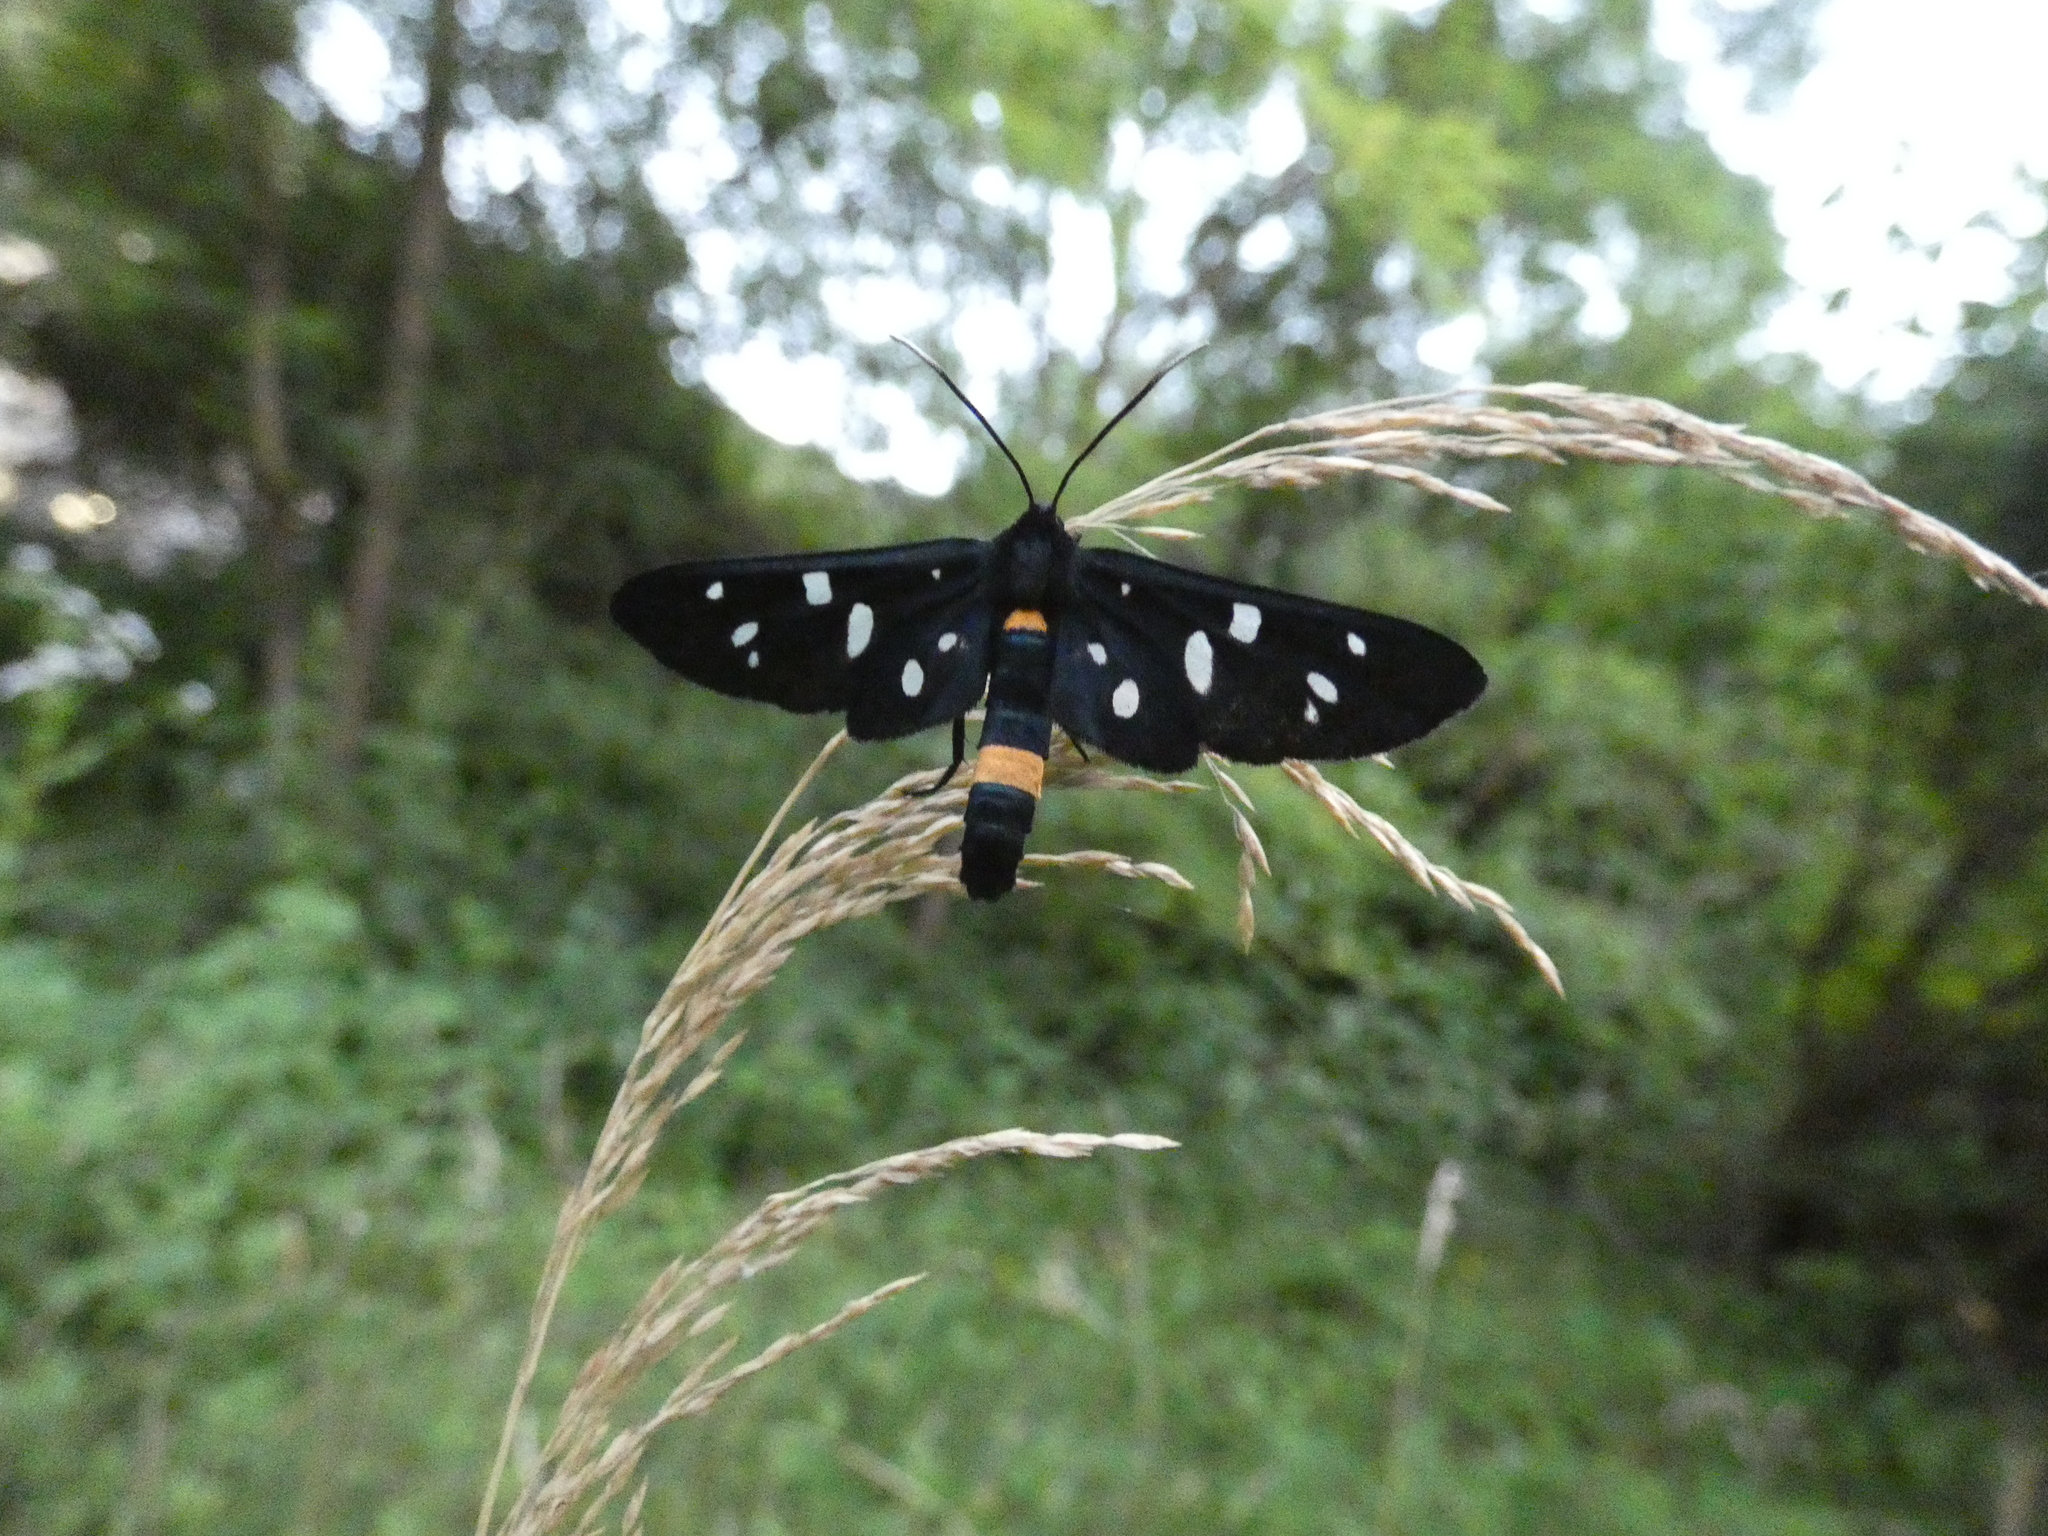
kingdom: Animalia
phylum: Arthropoda
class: Insecta
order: Lepidoptera
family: Erebidae
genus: Amata
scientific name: Amata phegea
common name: Nine-spotted
